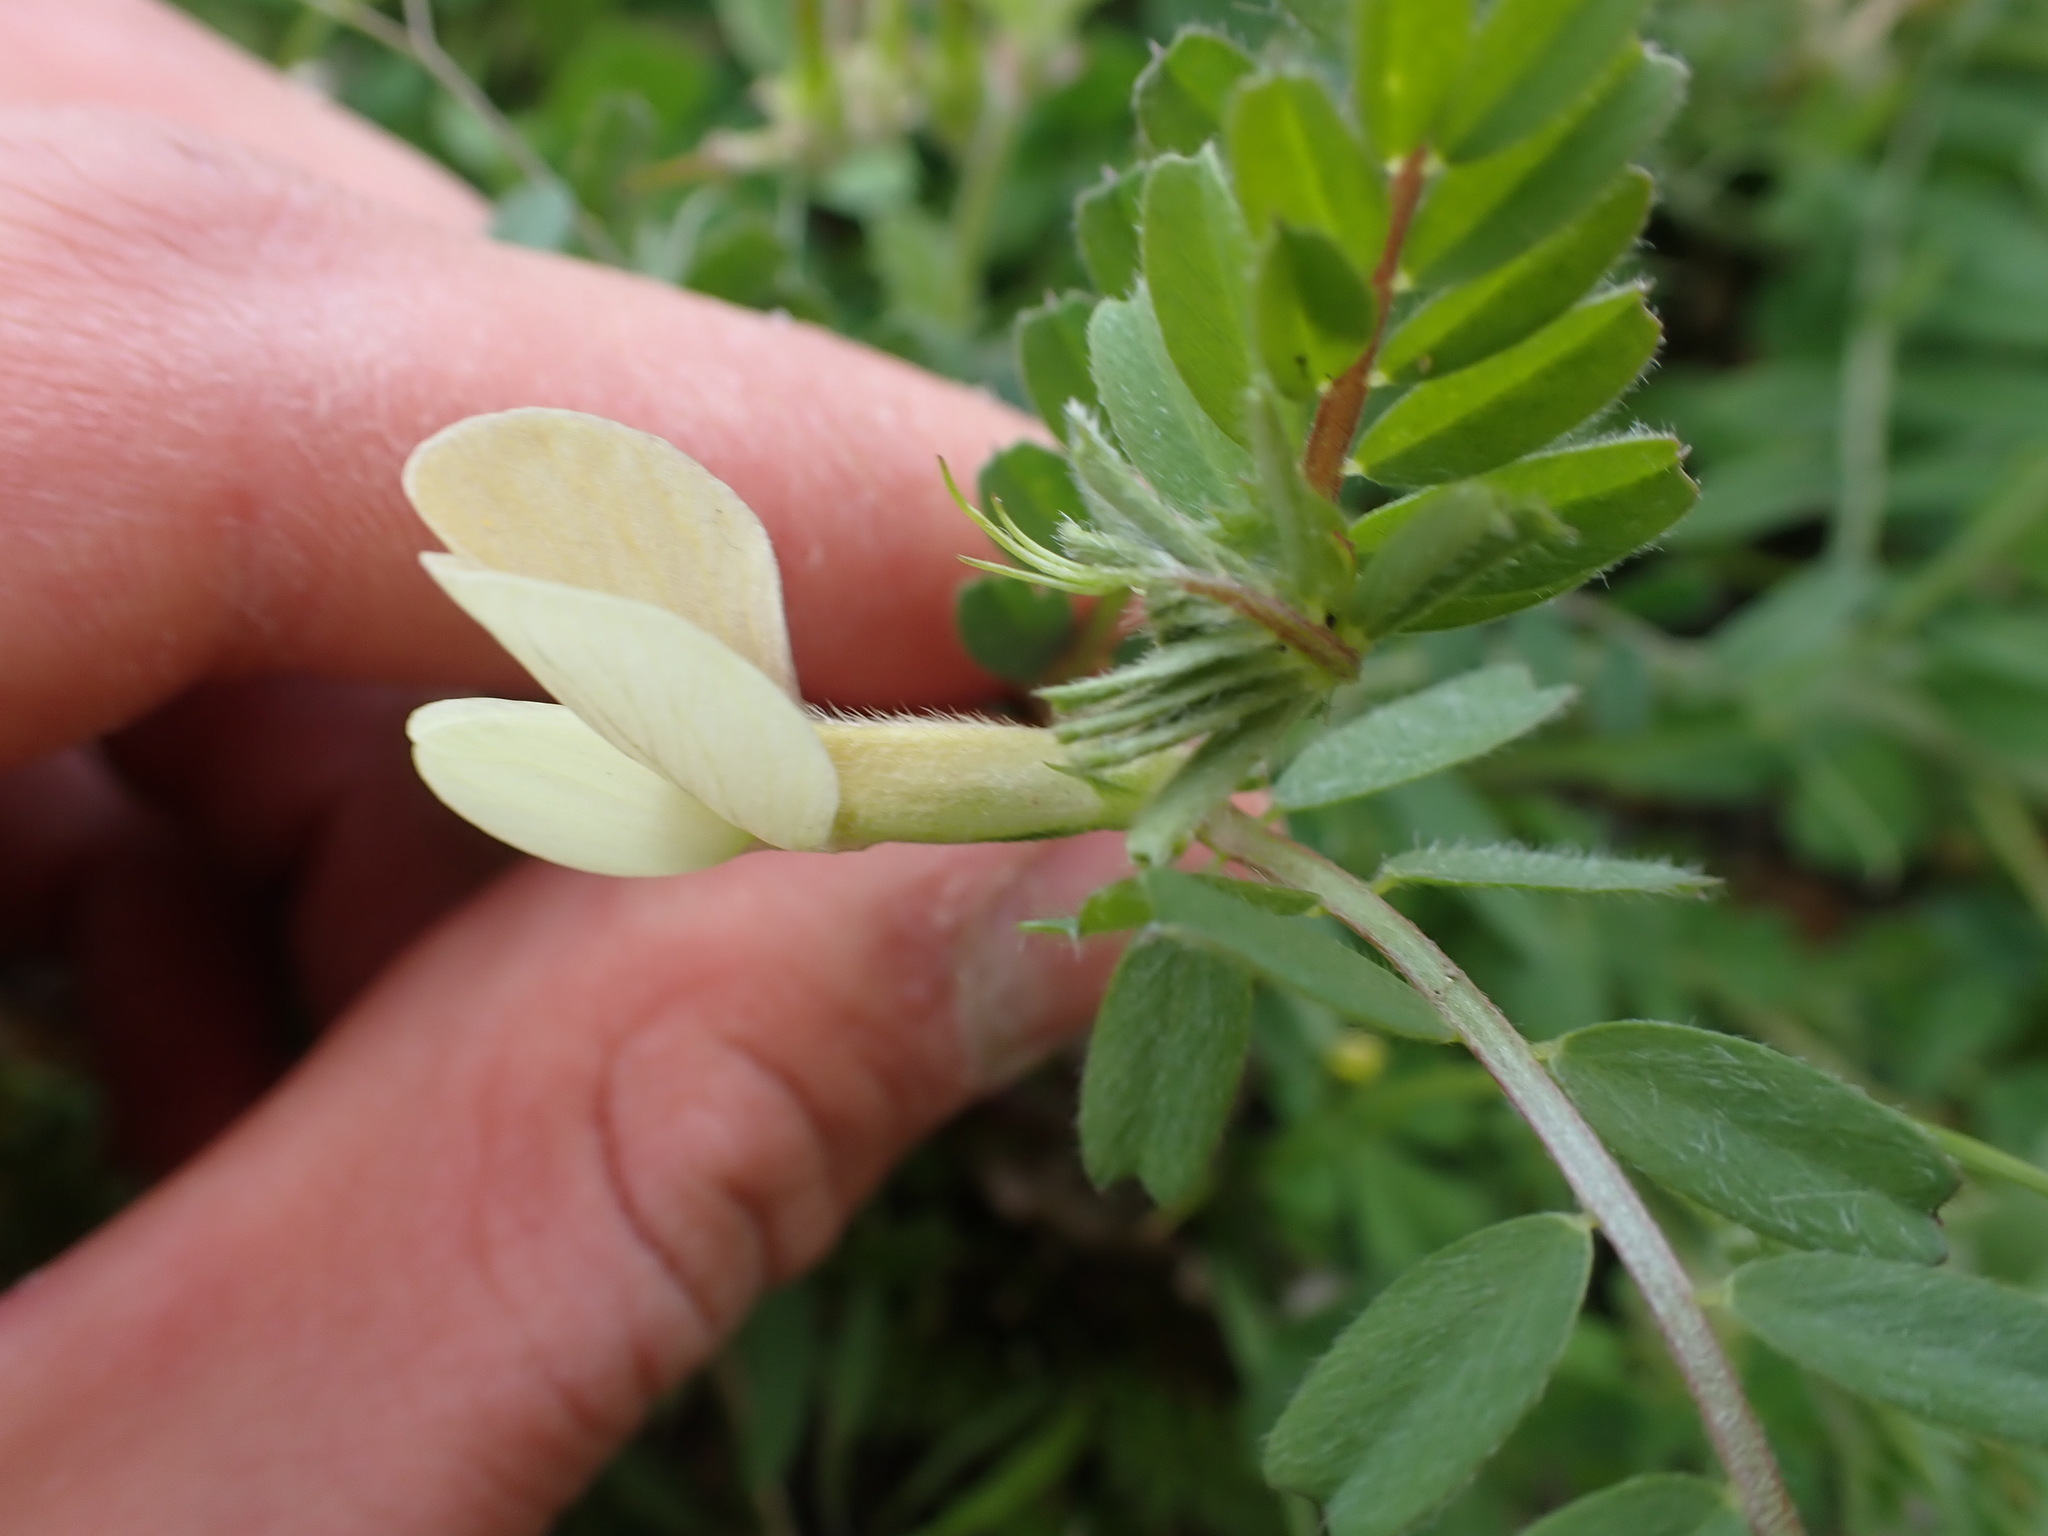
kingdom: Plantae
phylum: Tracheophyta
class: Magnoliopsida
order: Fabales
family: Fabaceae
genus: Vicia
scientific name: Vicia hybrida
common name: Hairy yellow vetch
